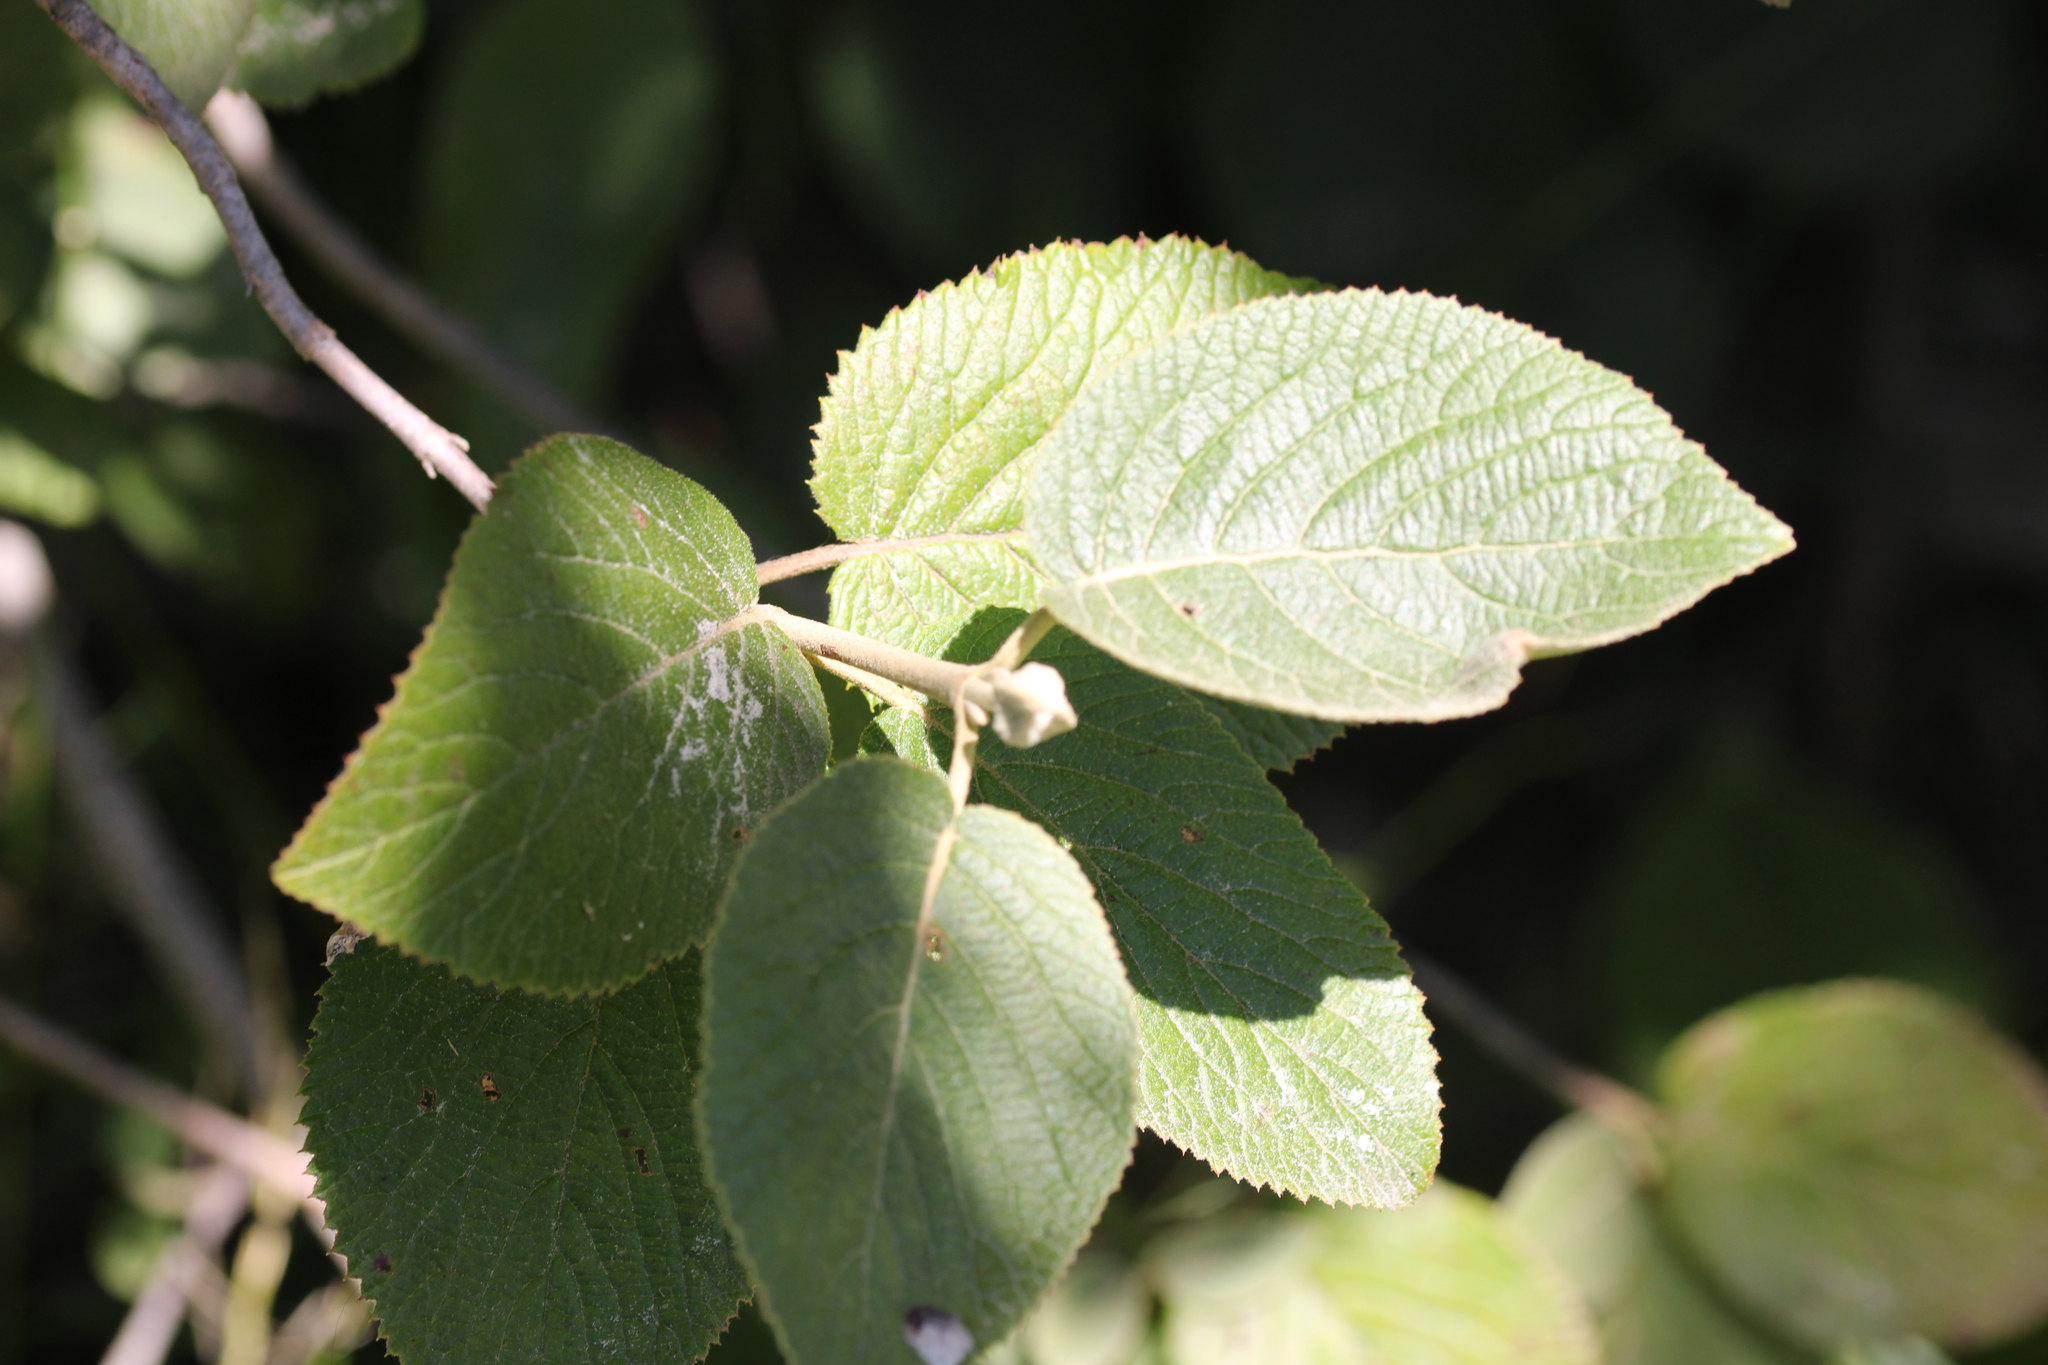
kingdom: Plantae
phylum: Tracheophyta
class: Magnoliopsida
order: Dipsacales
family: Viburnaceae
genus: Viburnum
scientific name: Viburnum lantana
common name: Wayfaring tree
